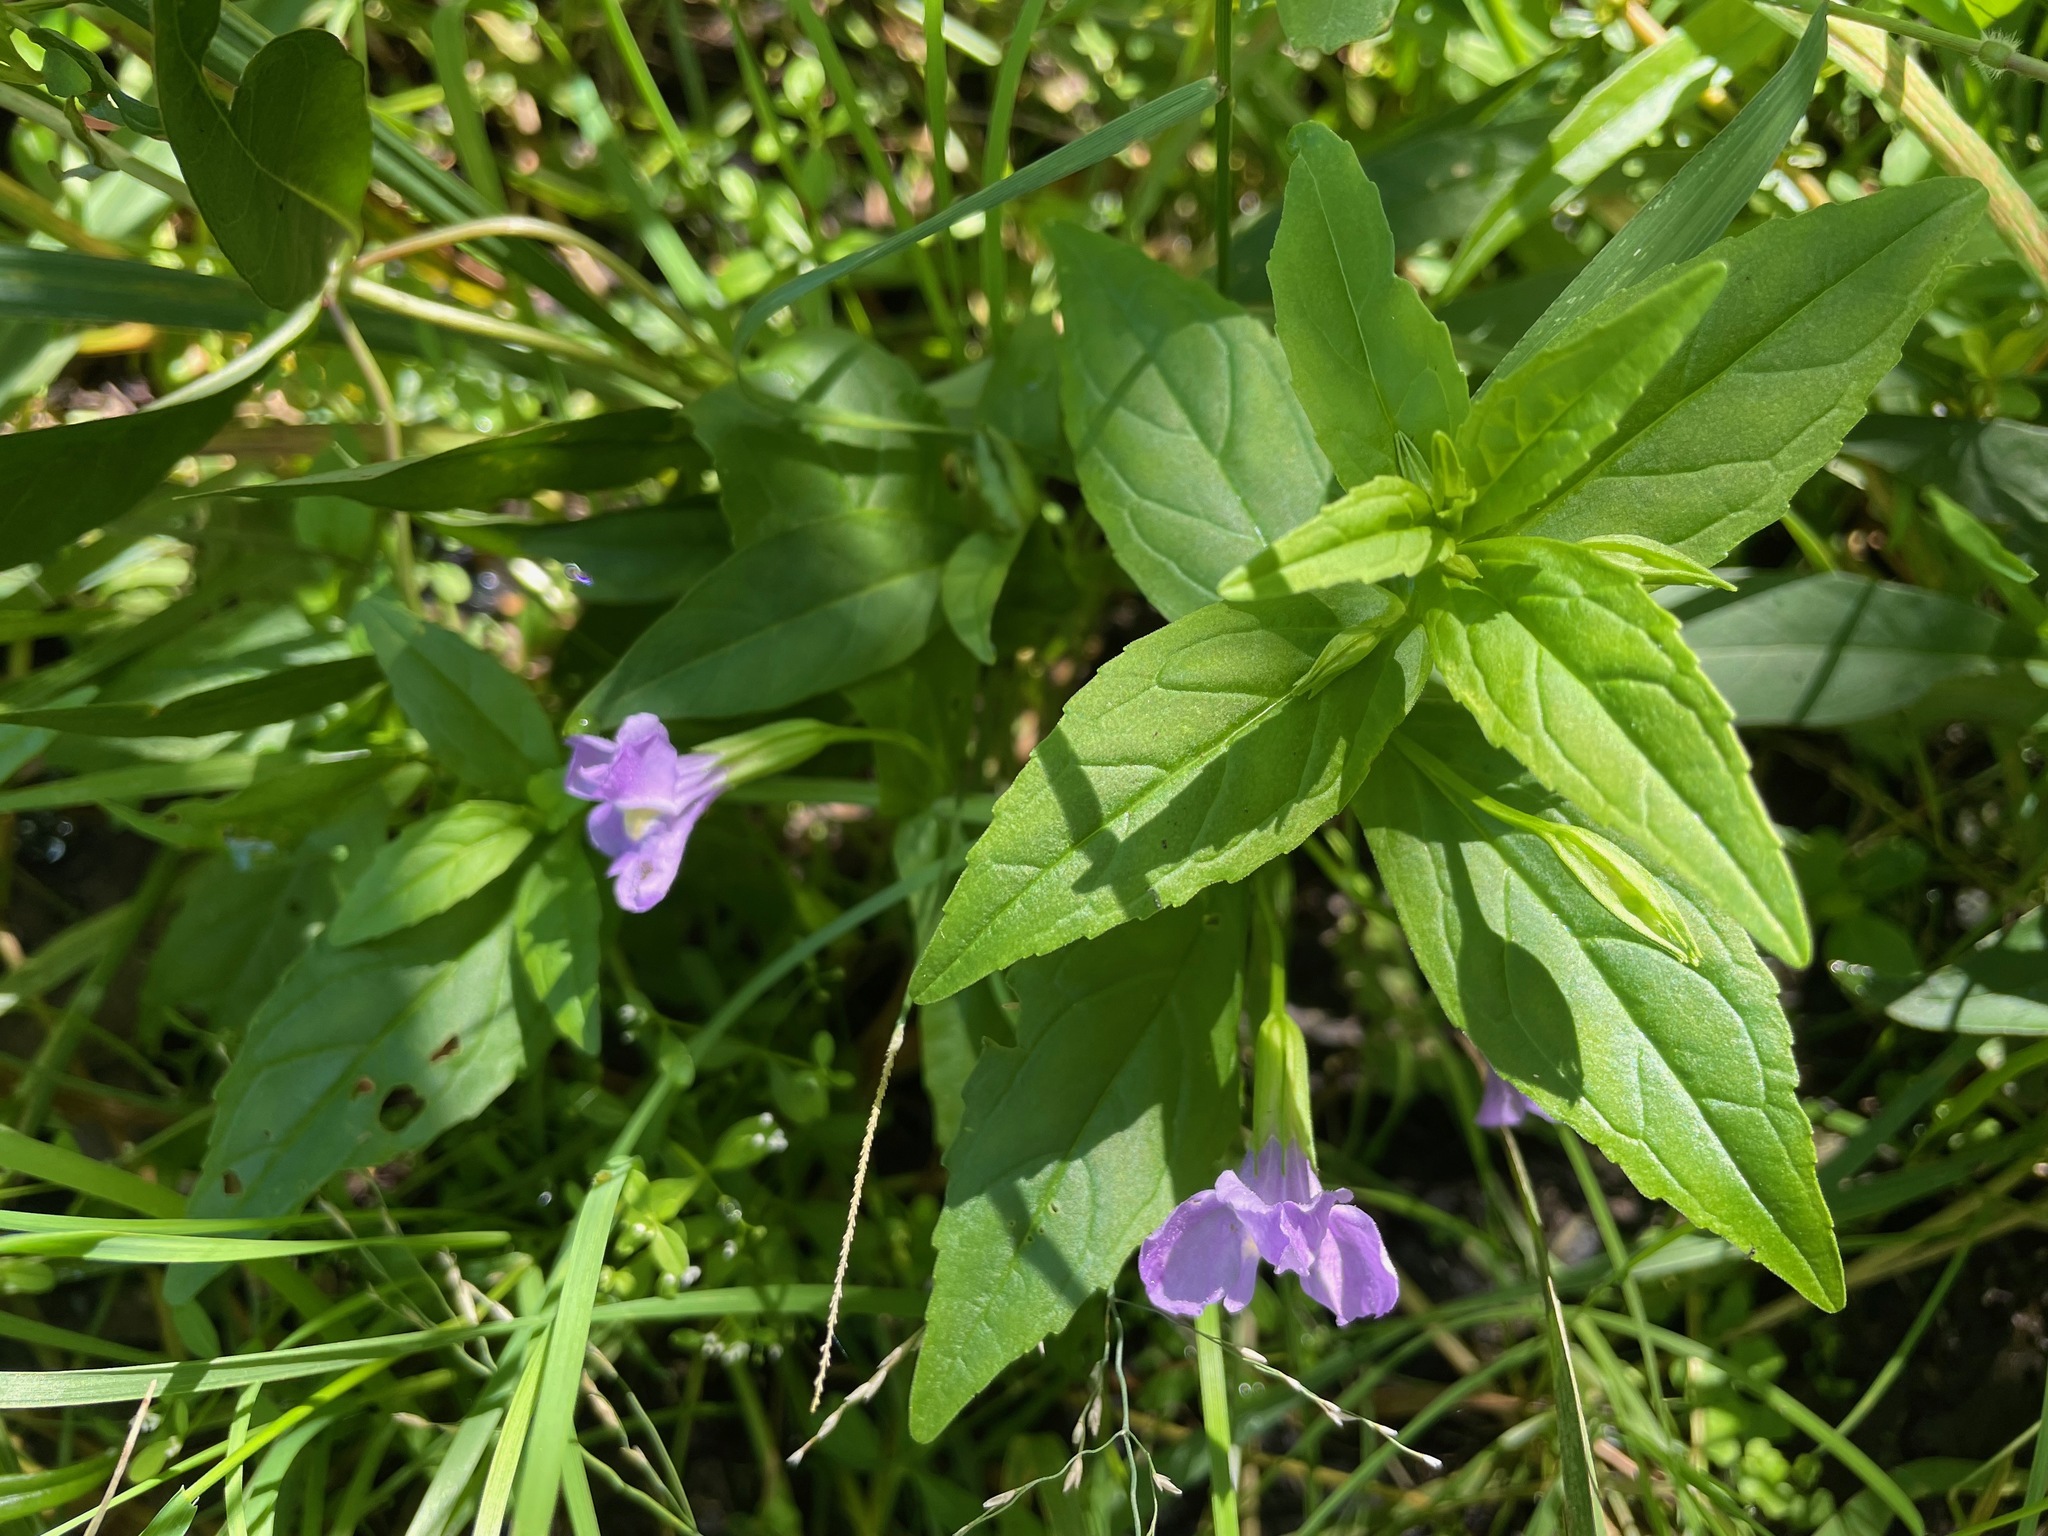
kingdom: Plantae
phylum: Tracheophyta
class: Magnoliopsida
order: Lamiales
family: Phrymaceae
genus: Mimulus
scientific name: Mimulus ringens
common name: Allegheny monkeyflower
